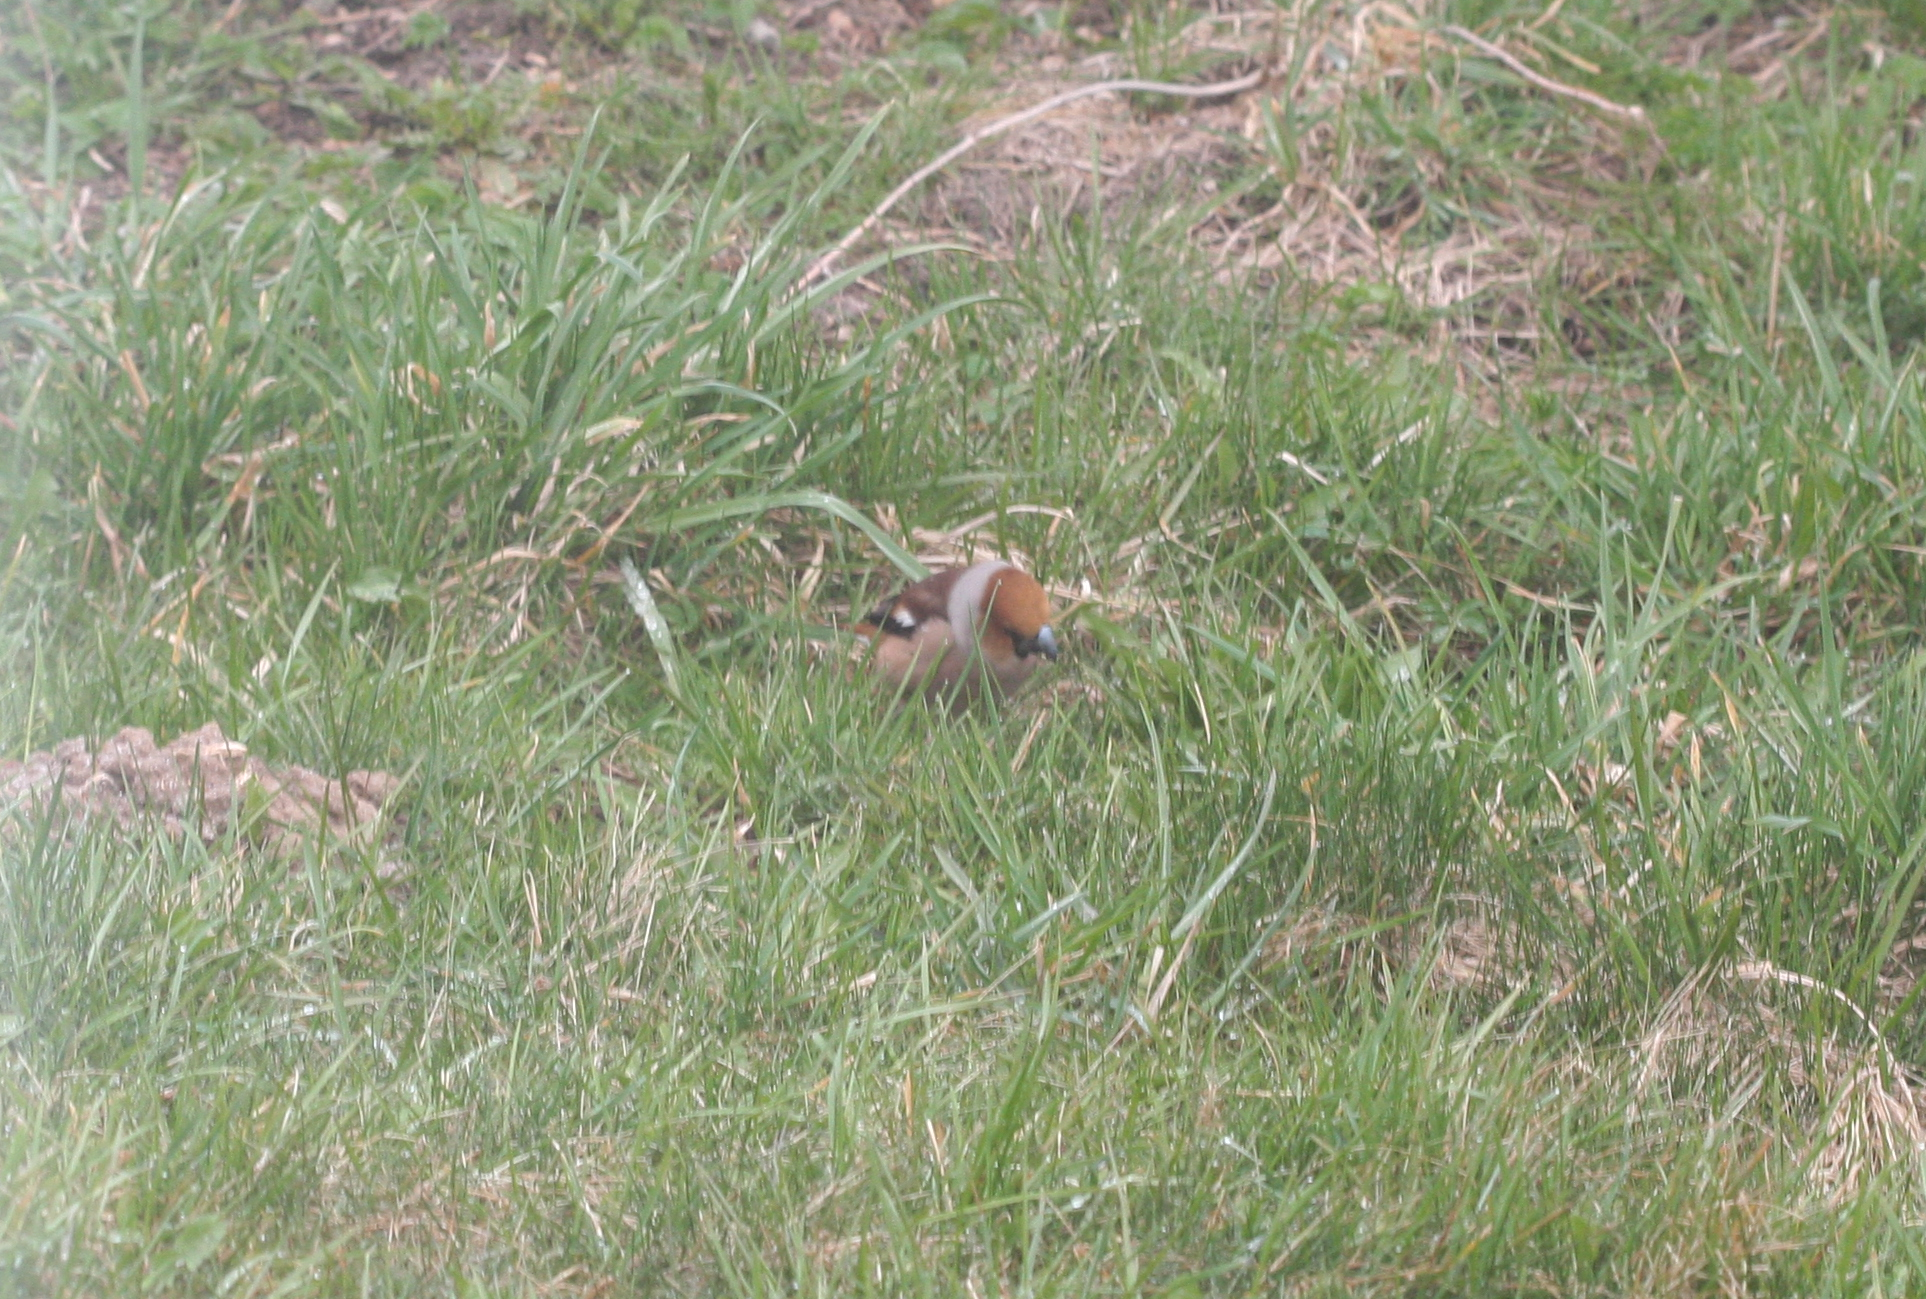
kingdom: Animalia
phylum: Chordata
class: Aves
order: Passeriformes
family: Fringillidae
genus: Coccothraustes
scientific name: Coccothraustes coccothraustes
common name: Hawfinch
